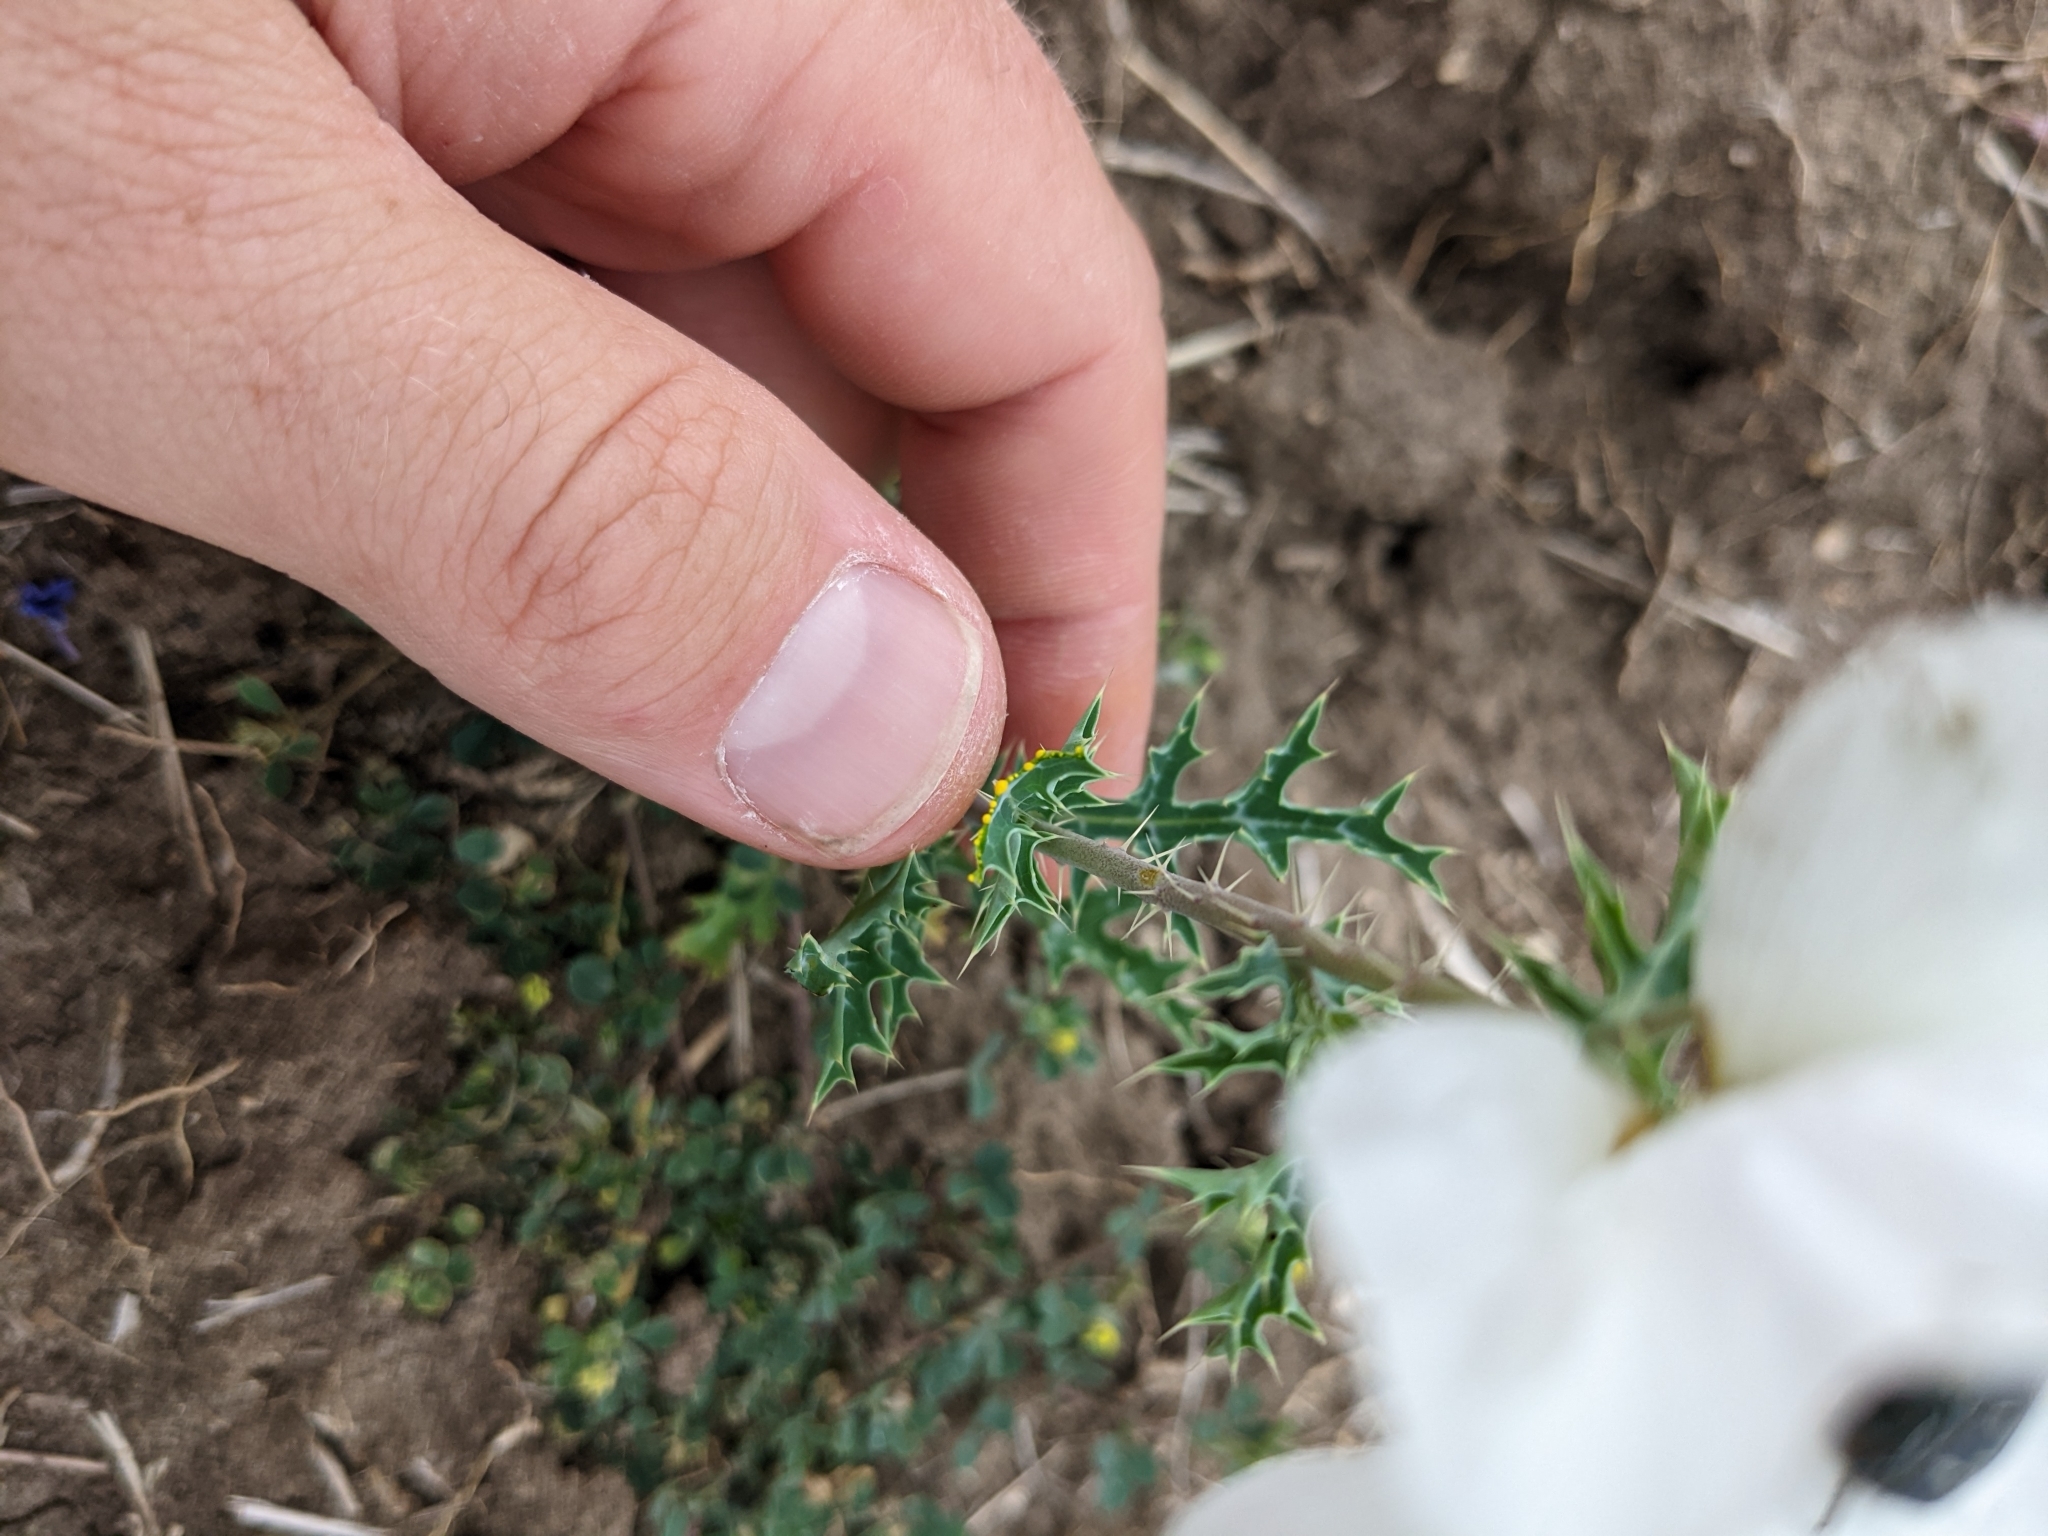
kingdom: Plantae
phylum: Tracheophyta
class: Magnoliopsida
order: Ranunculales
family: Papaveraceae
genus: Argemone
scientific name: Argemone sanguinea
